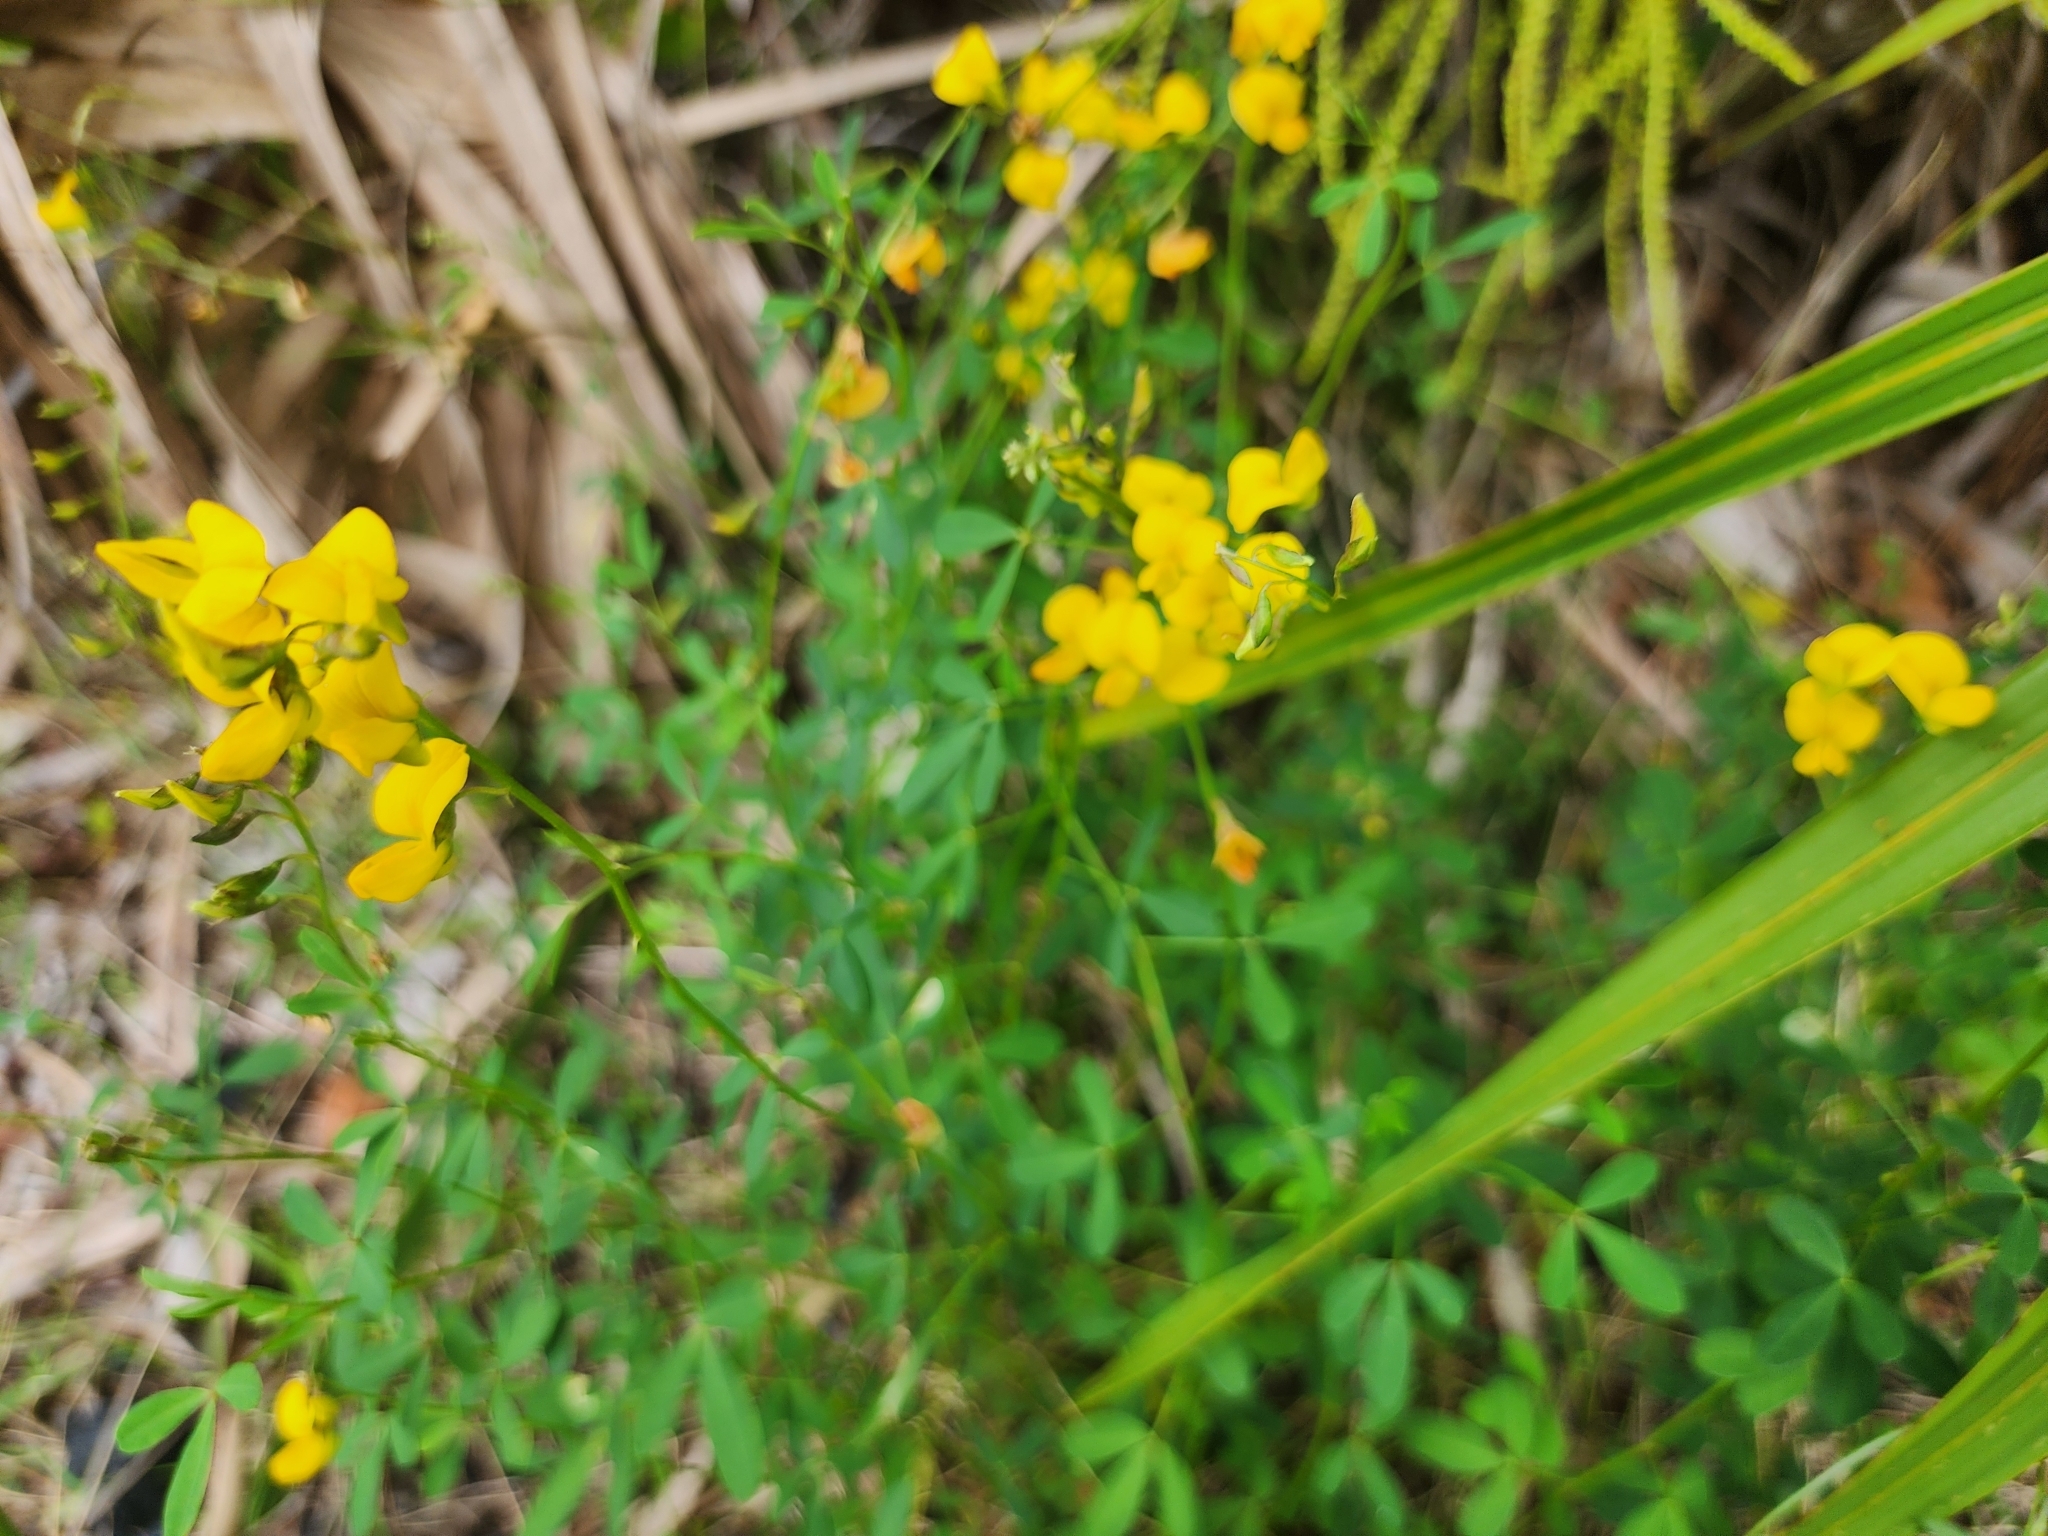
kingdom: Plantae
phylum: Tracheophyta
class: Magnoliopsida
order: Fabales
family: Fabaceae
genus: Crotalaria
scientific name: Crotalaria pumila
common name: Low rattlebox
